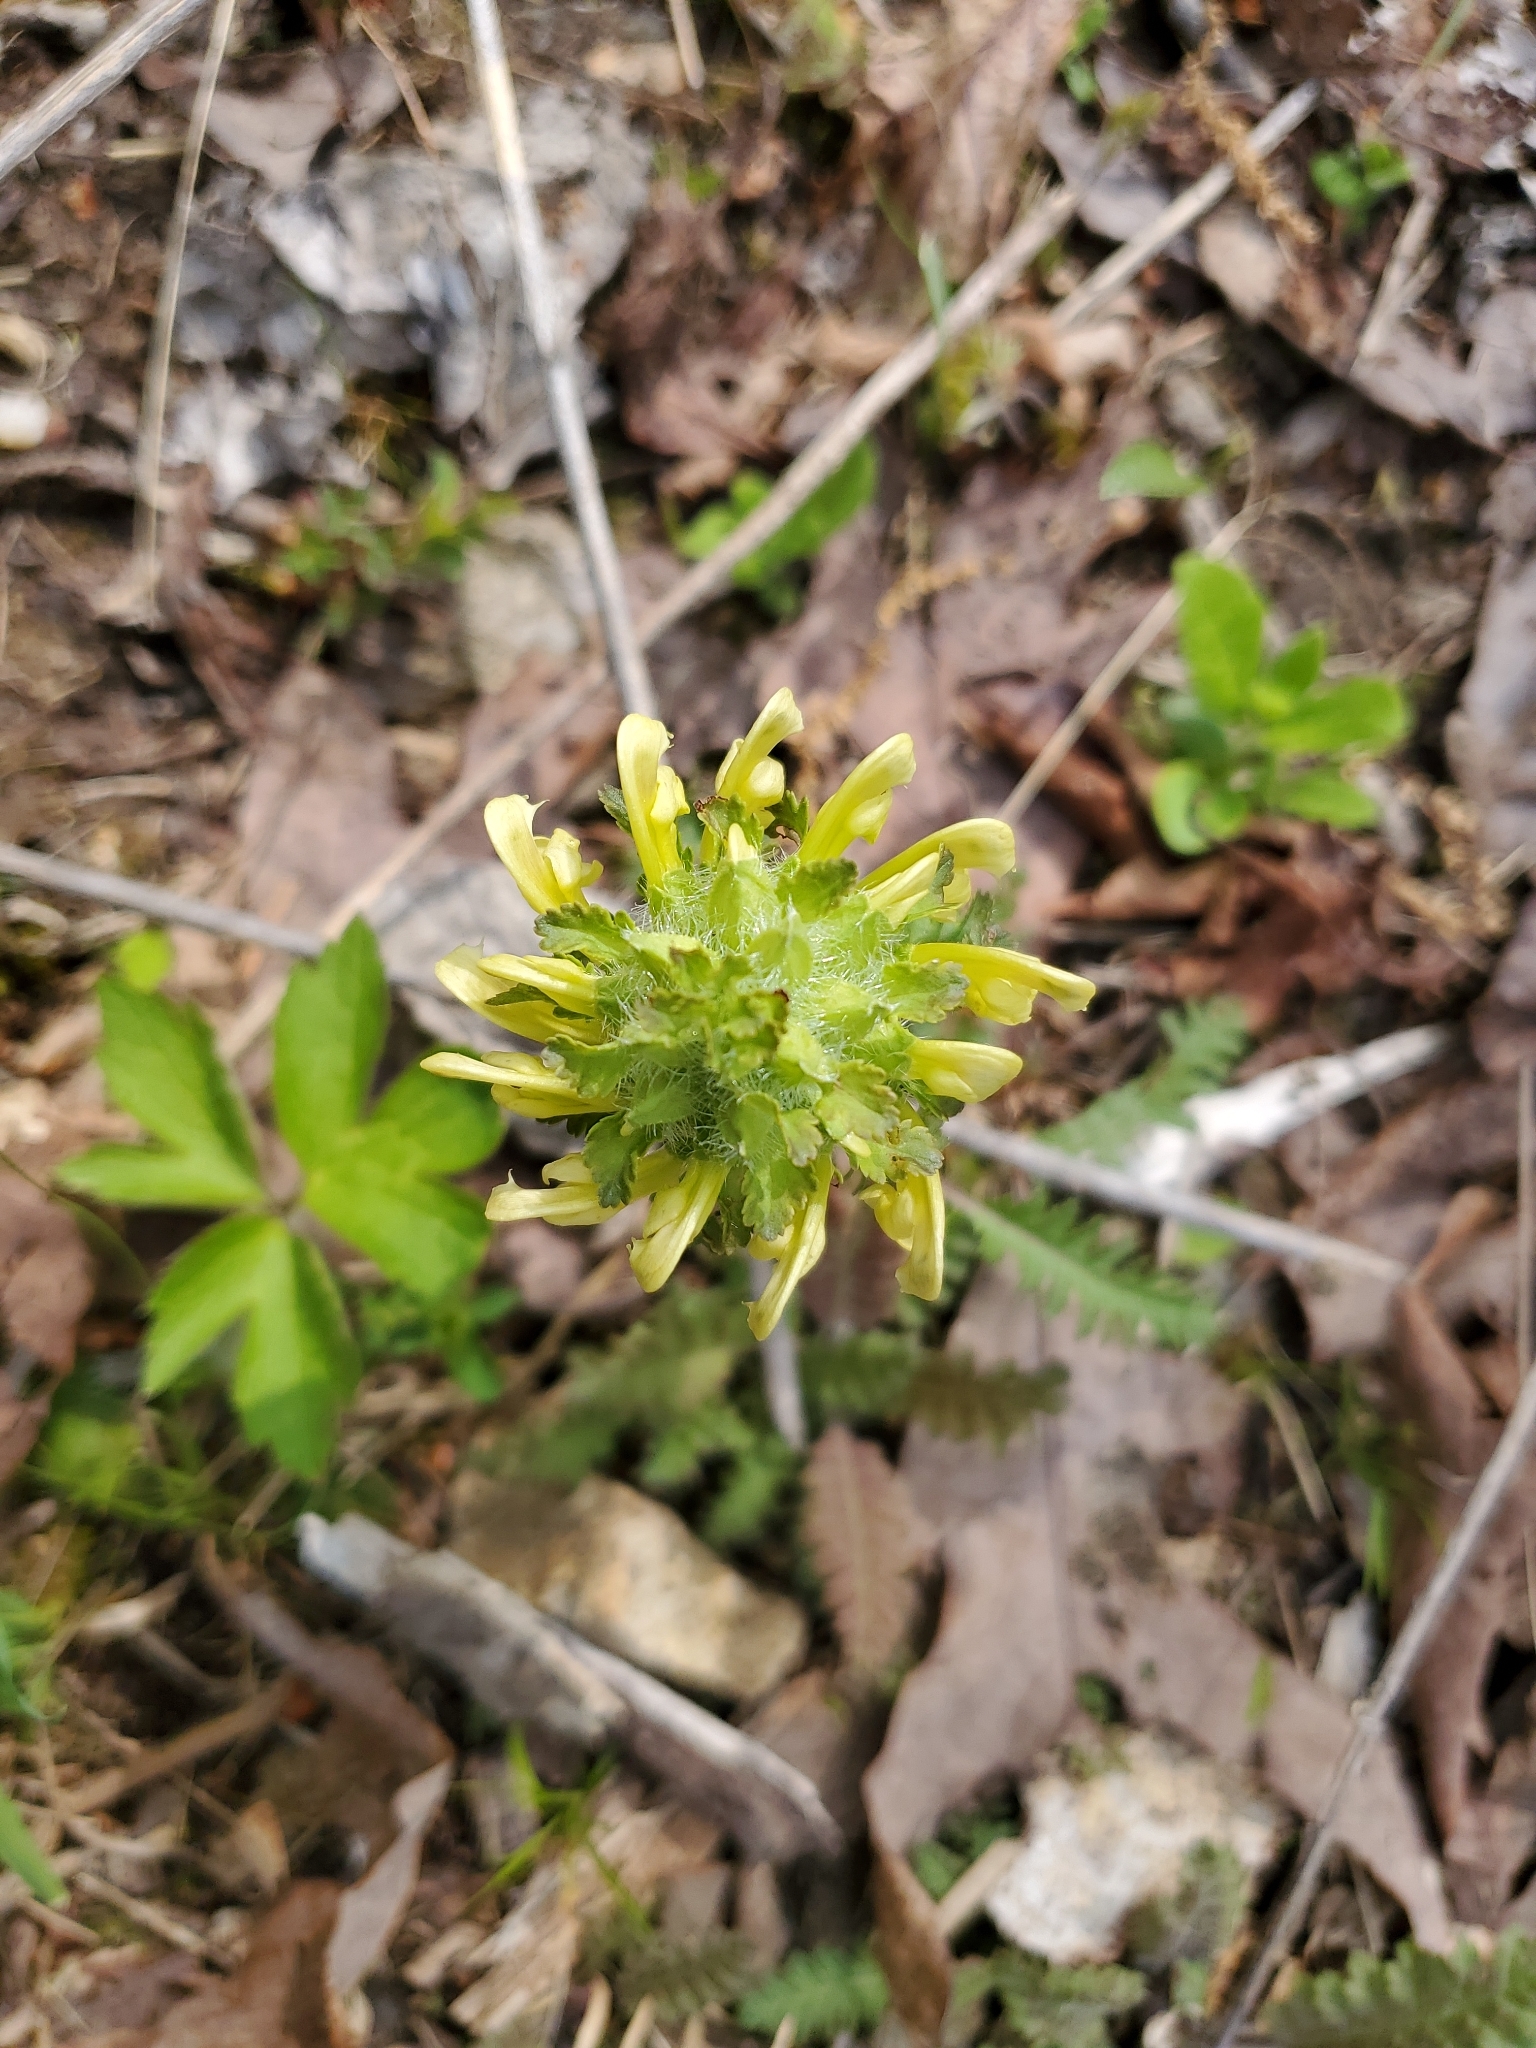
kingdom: Plantae
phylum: Tracheophyta
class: Magnoliopsida
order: Lamiales
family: Orobanchaceae
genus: Pedicularis
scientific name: Pedicularis canadensis
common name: Early lousewort
